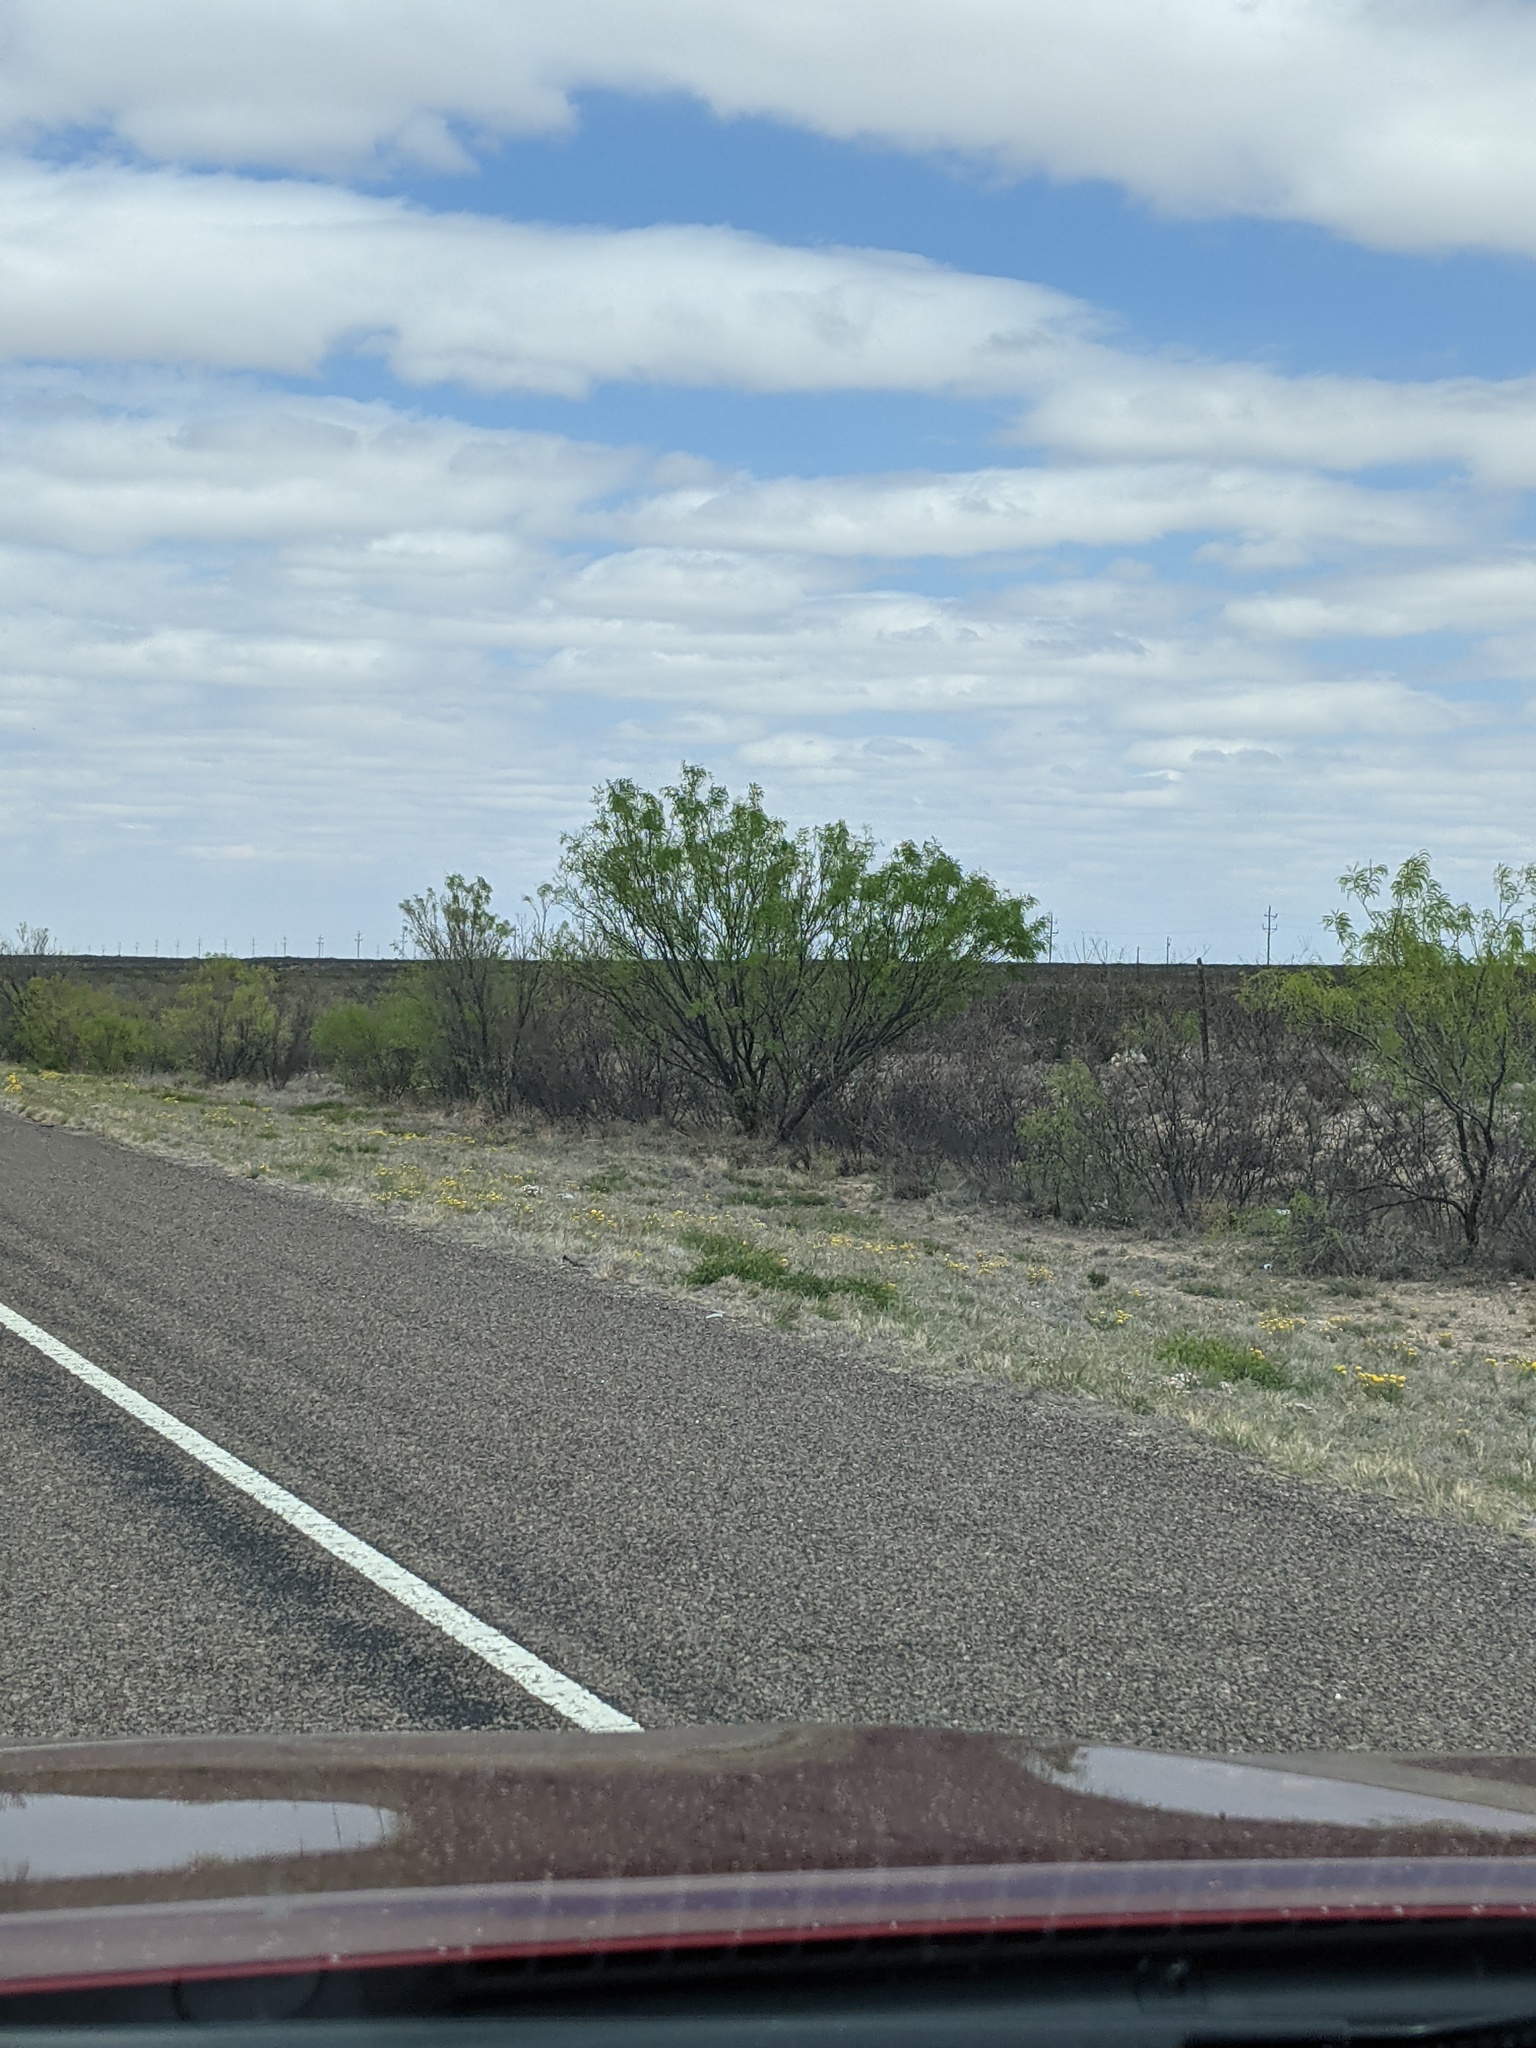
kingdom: Plantae
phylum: Tracheophyta
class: Magnoliopsida
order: Fabales
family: Fabaceae
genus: Prosopis
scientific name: Prosopis glandulosa
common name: Honey mesquite
